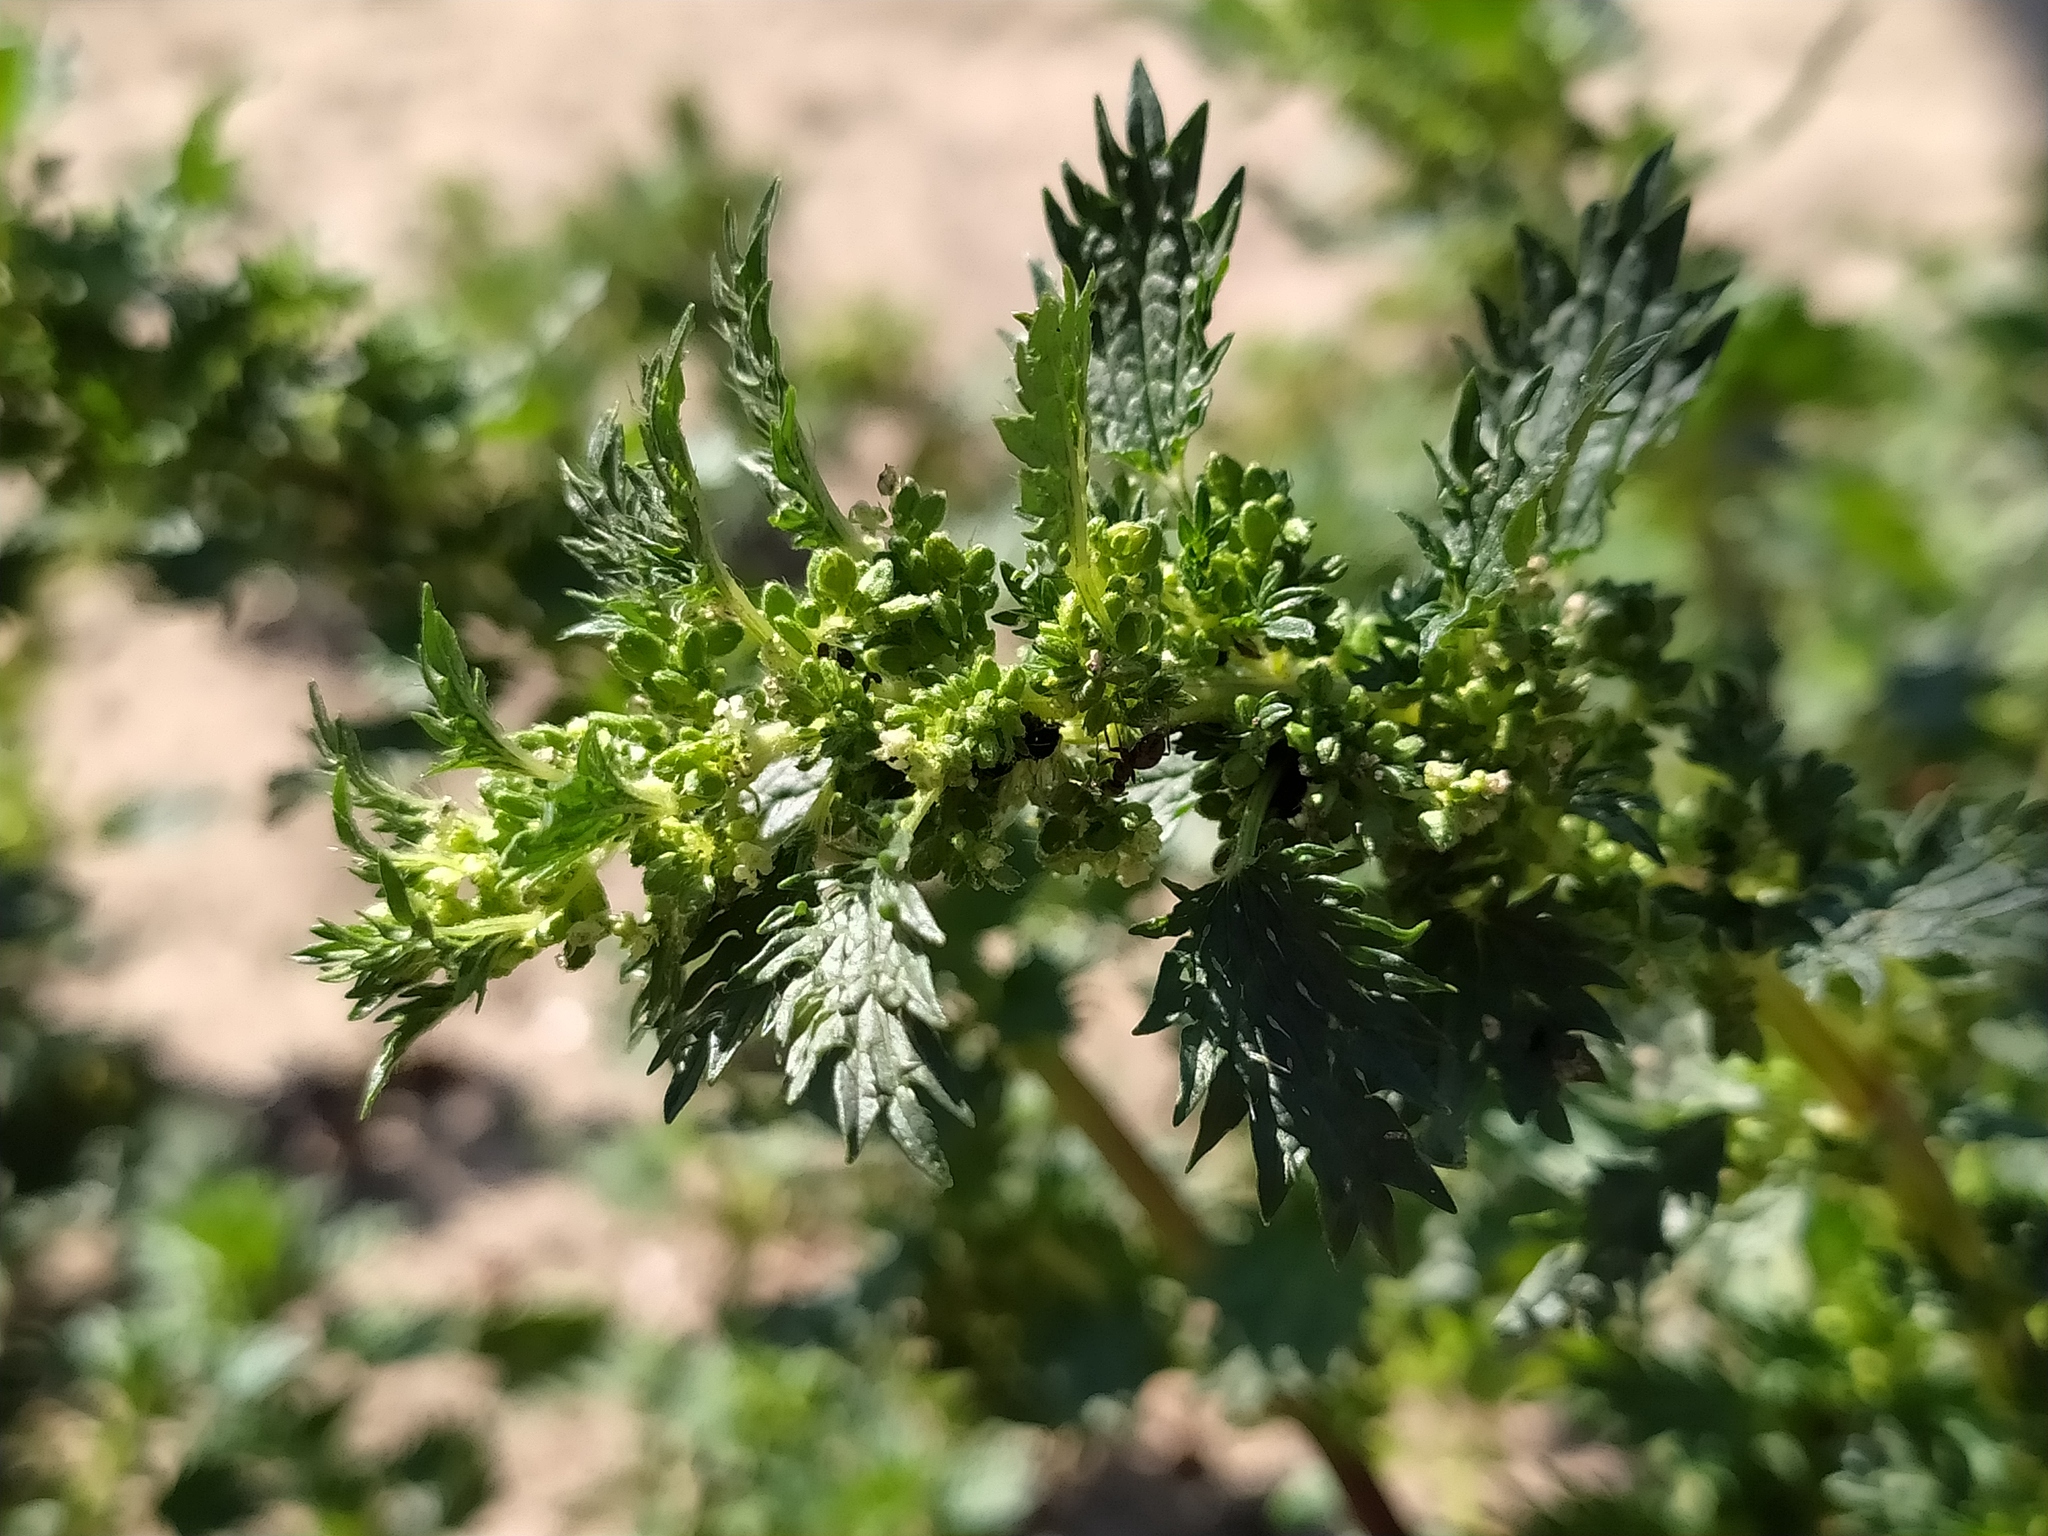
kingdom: Plantae
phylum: Tracheophyta
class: Magnoliopsida
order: Rosales
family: Urticaceae
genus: Urtica
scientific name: Urtica urens
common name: Dwarf nettle
